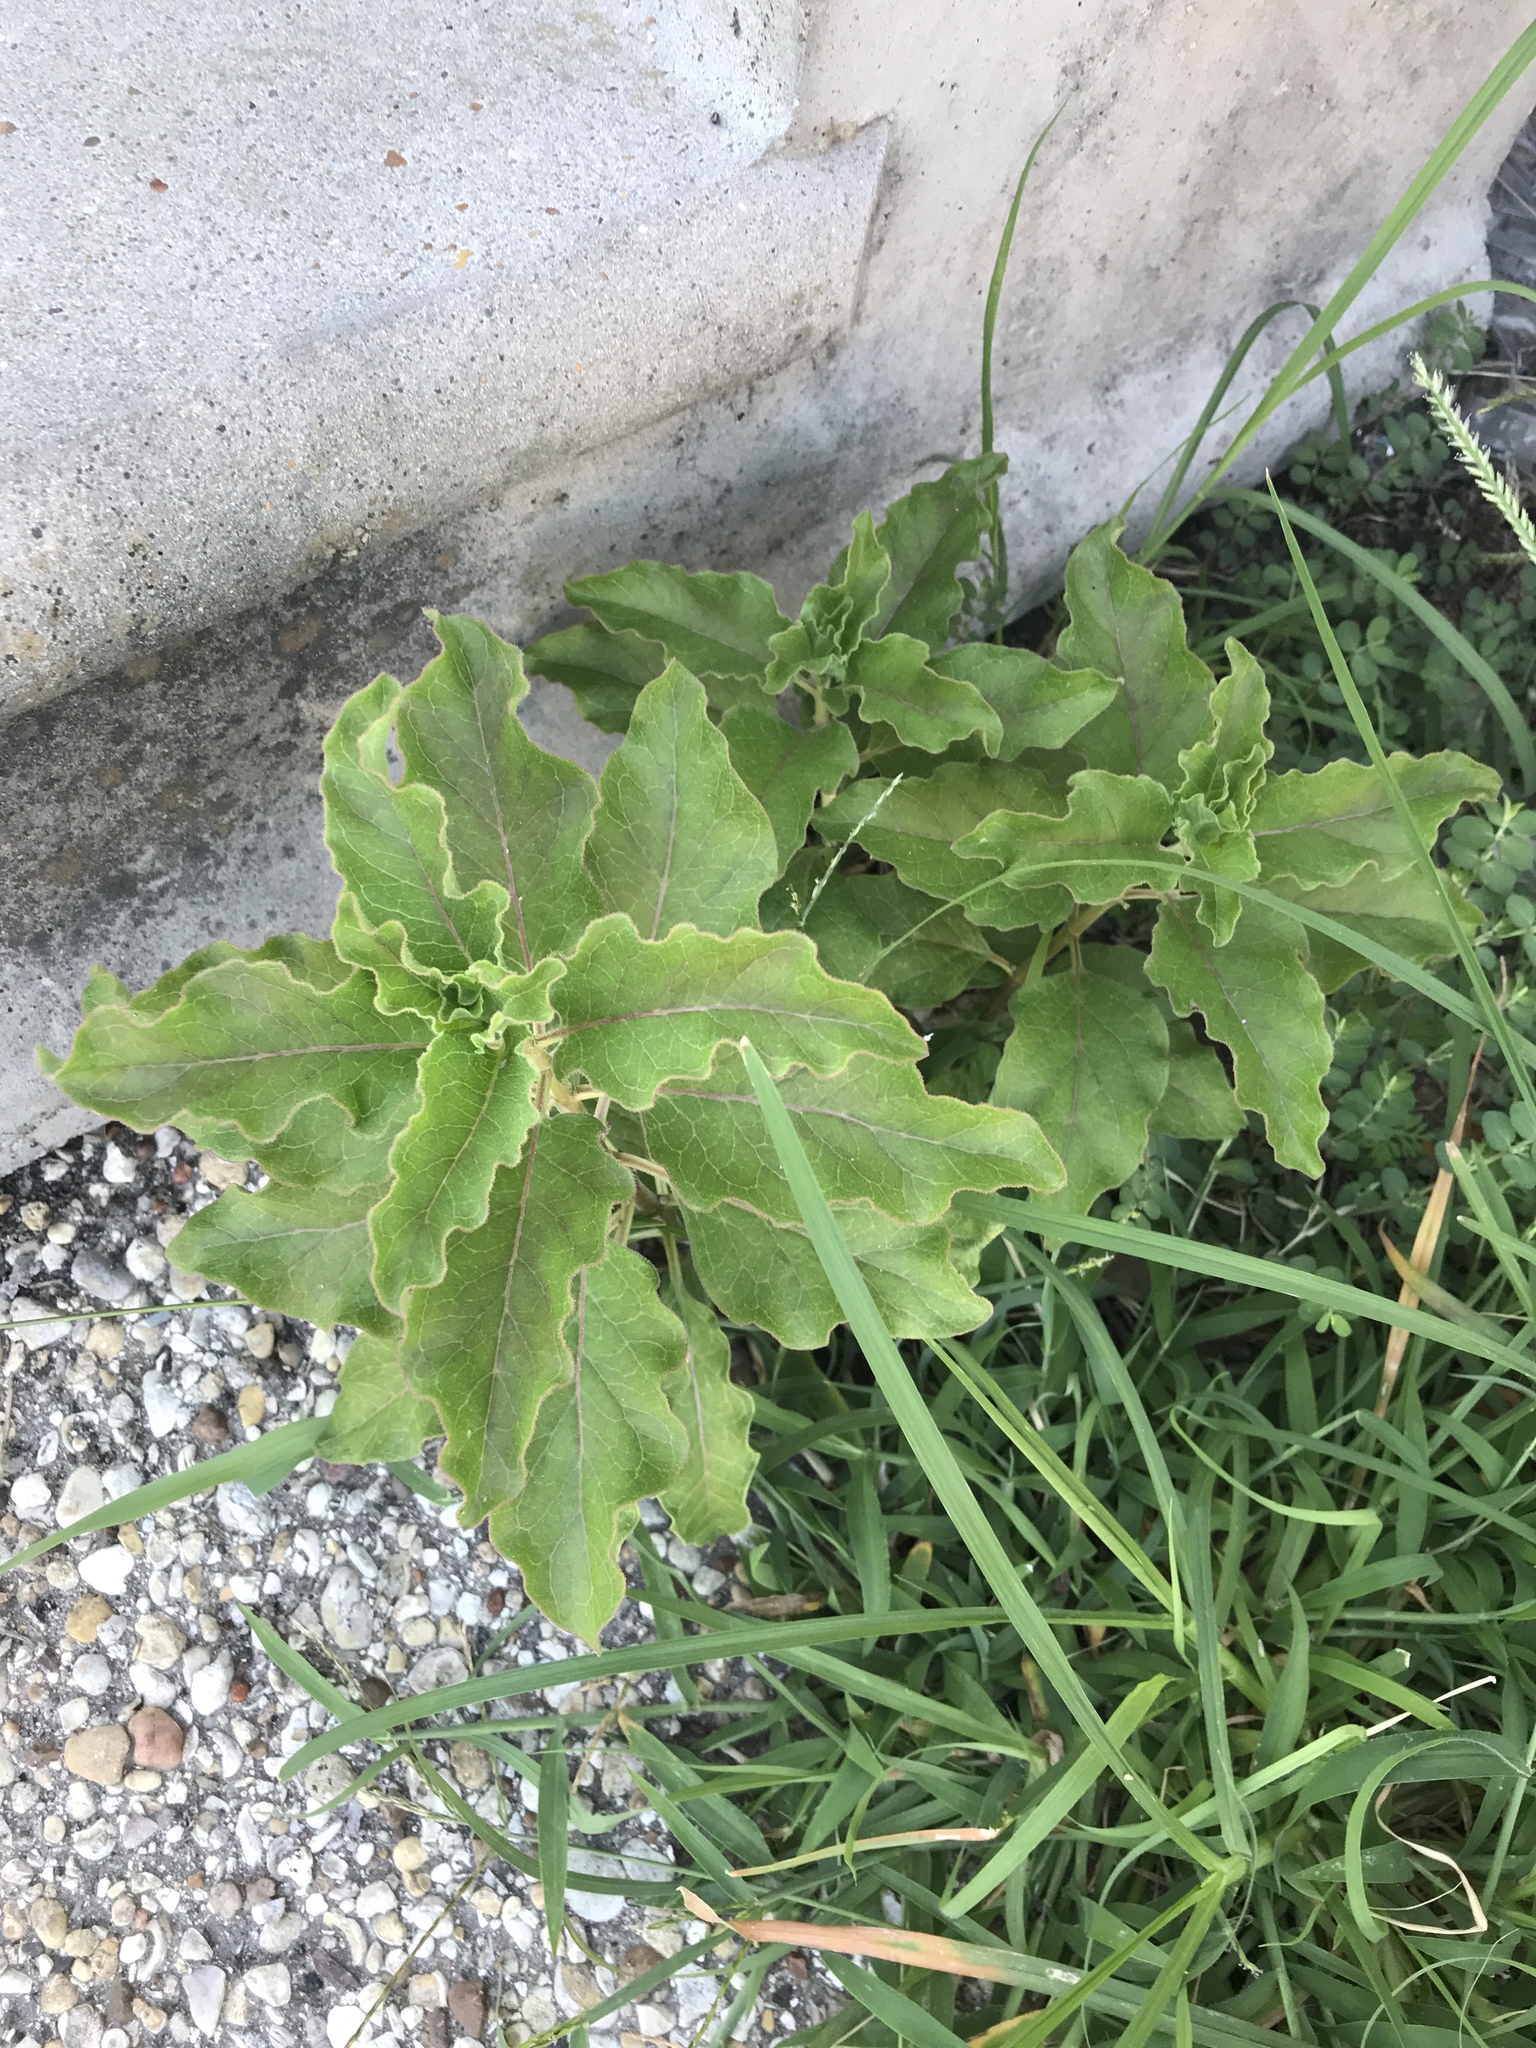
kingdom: Plantae
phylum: Tracheophyta
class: Magnoliopsida
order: Gentianales
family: Apocynaceae
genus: Asclepias
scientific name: Asclepias oenotheroides
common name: Zizotes milkweed
